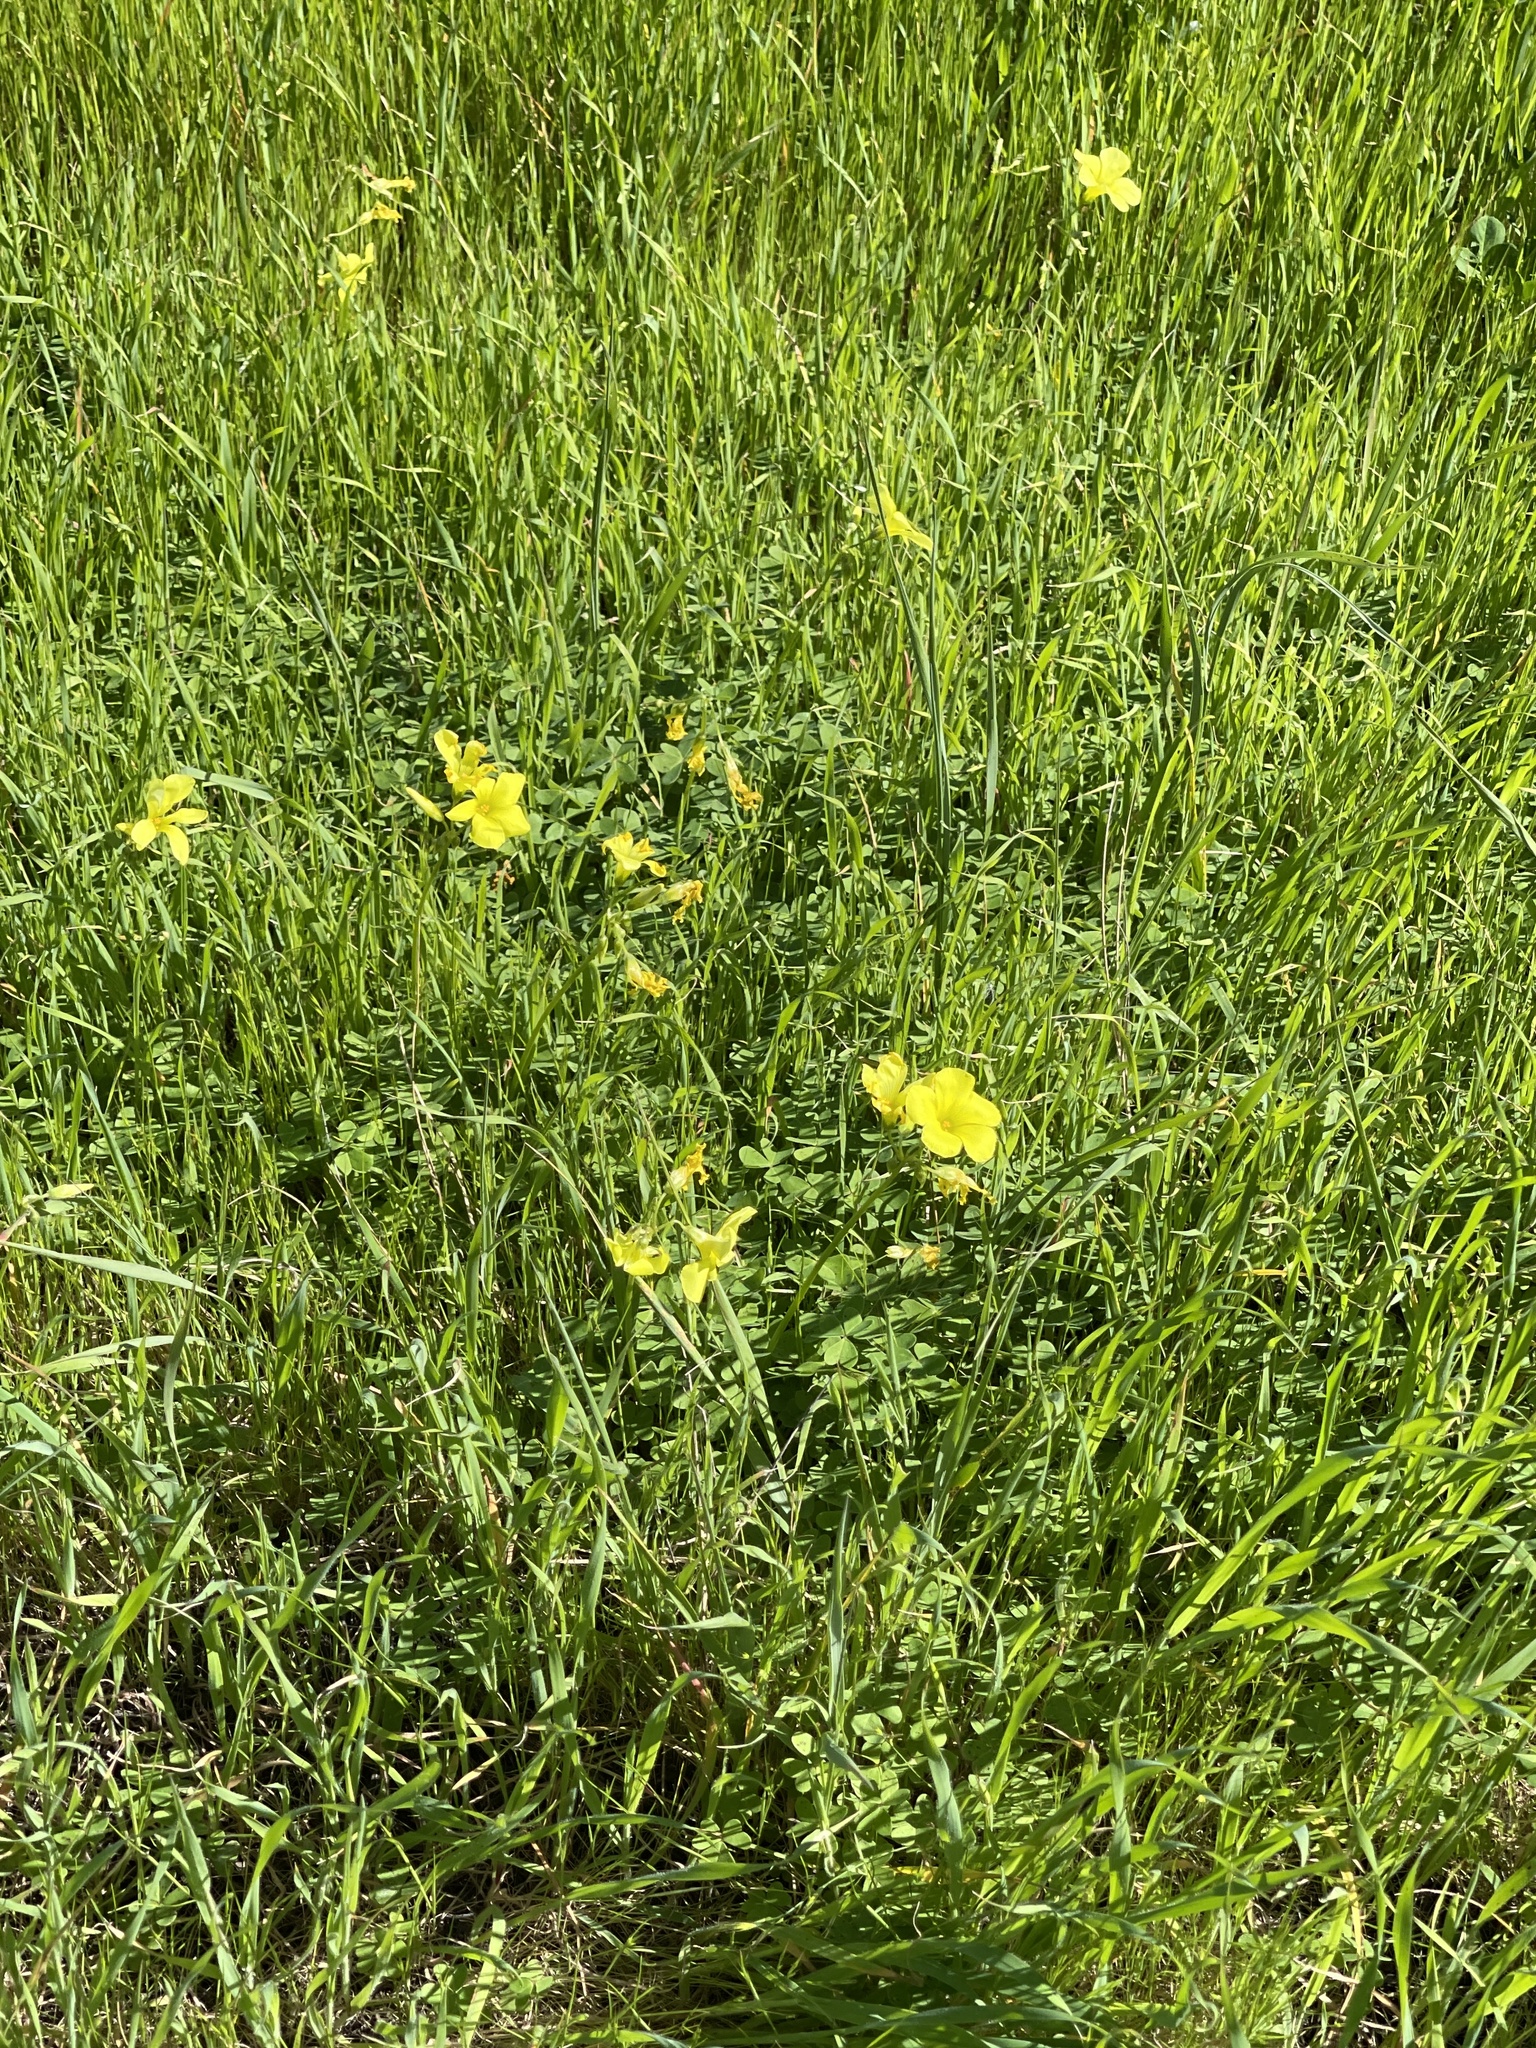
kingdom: Plantae
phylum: Tracheophyta
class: Magnoliopsida
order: Oxalidales
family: Oxalidaceae
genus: Oxalis
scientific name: Oxalis pes-caprae
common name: Bermuda-buttercup
